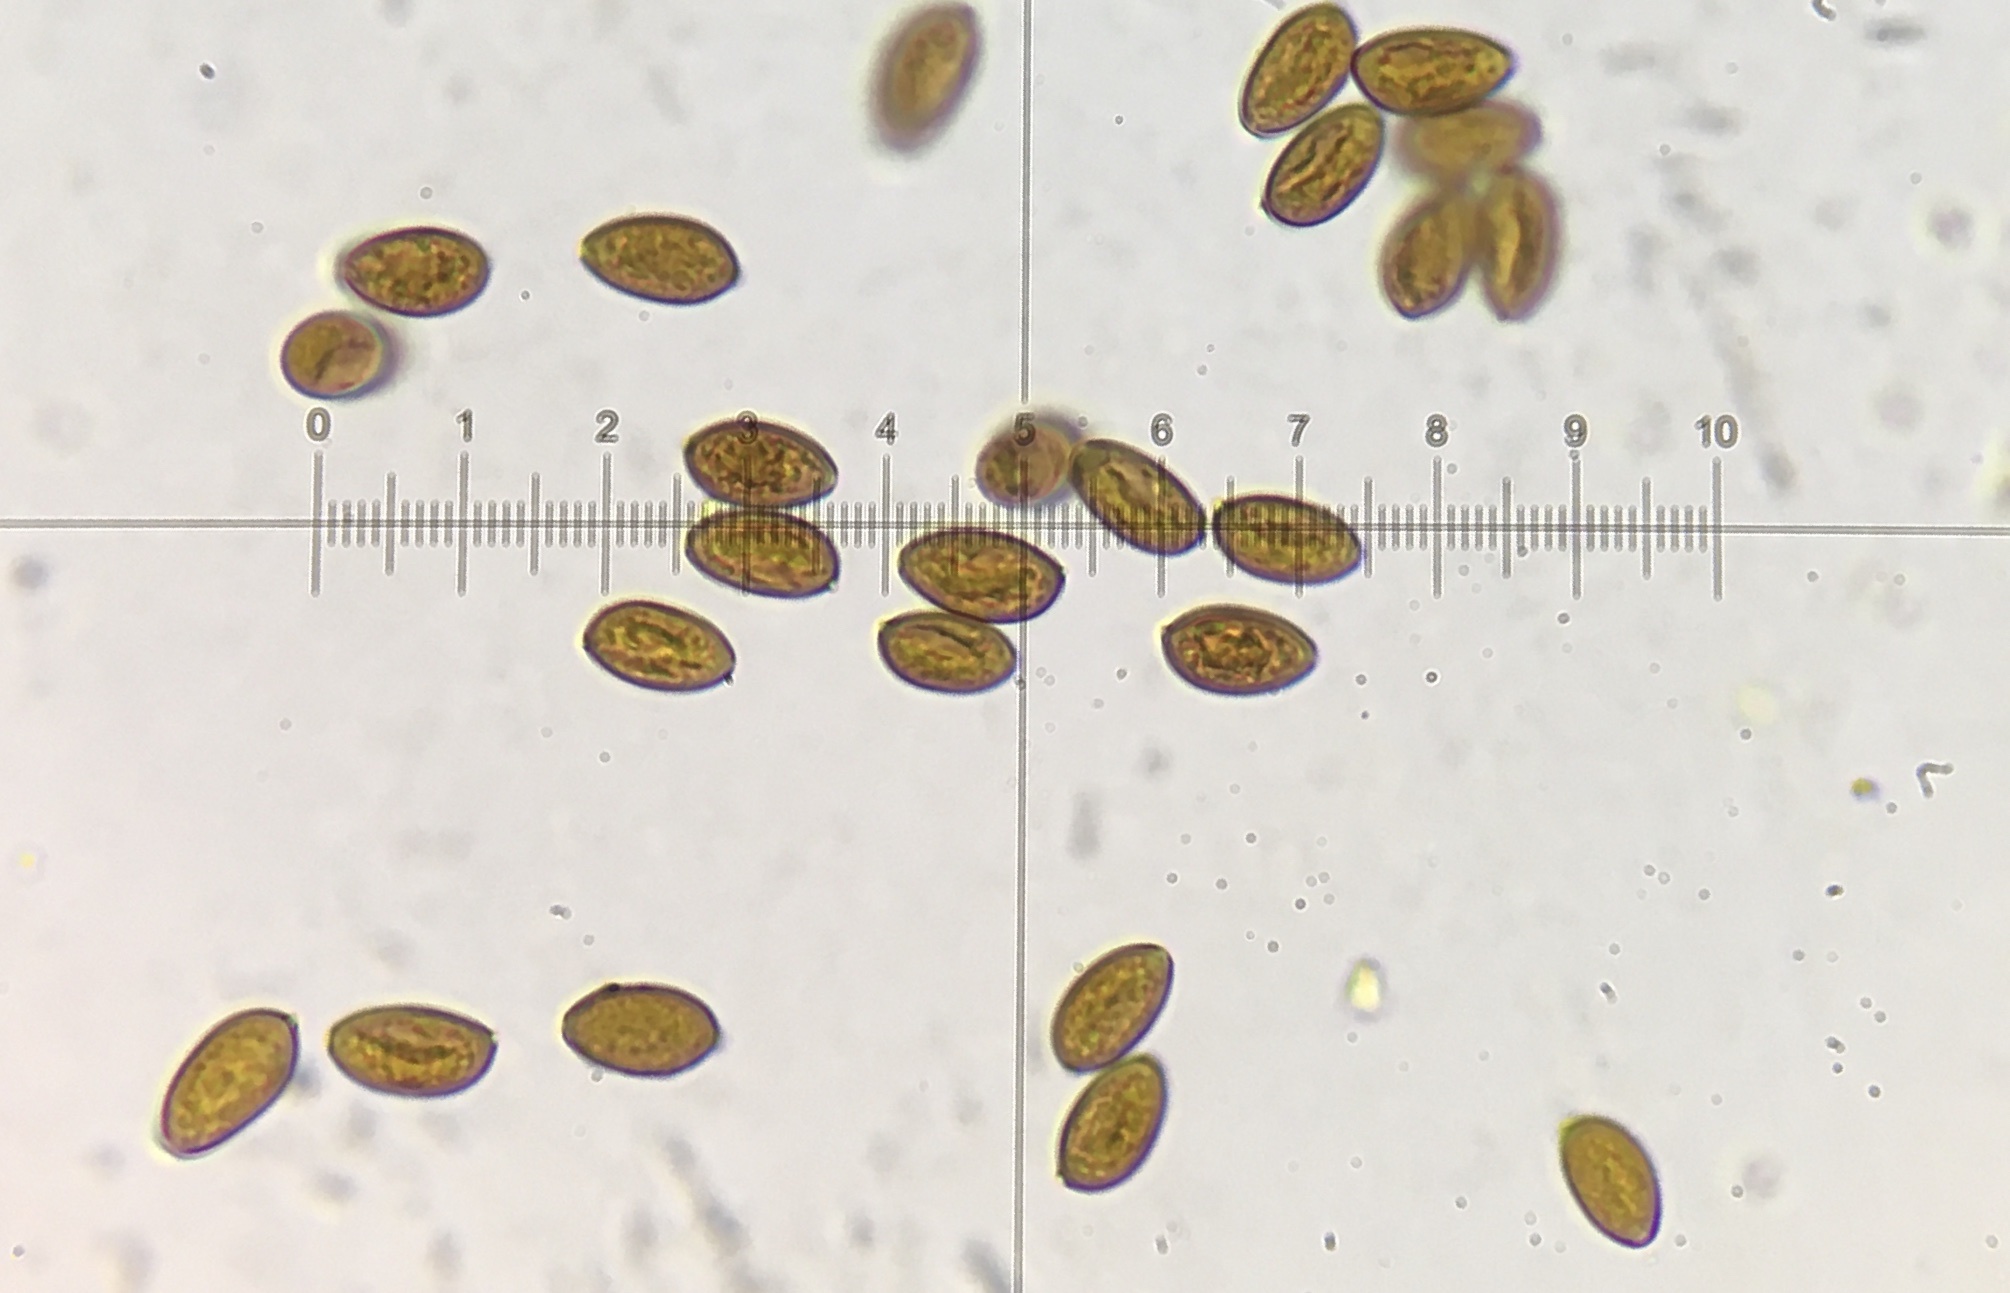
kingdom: Fungi
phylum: Basidiomycota
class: Agaricomycetes
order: Agaricales
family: Hymenogastraceae
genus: Psilocybe
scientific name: Psilocybe cyanescens
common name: Blueleg brownie
